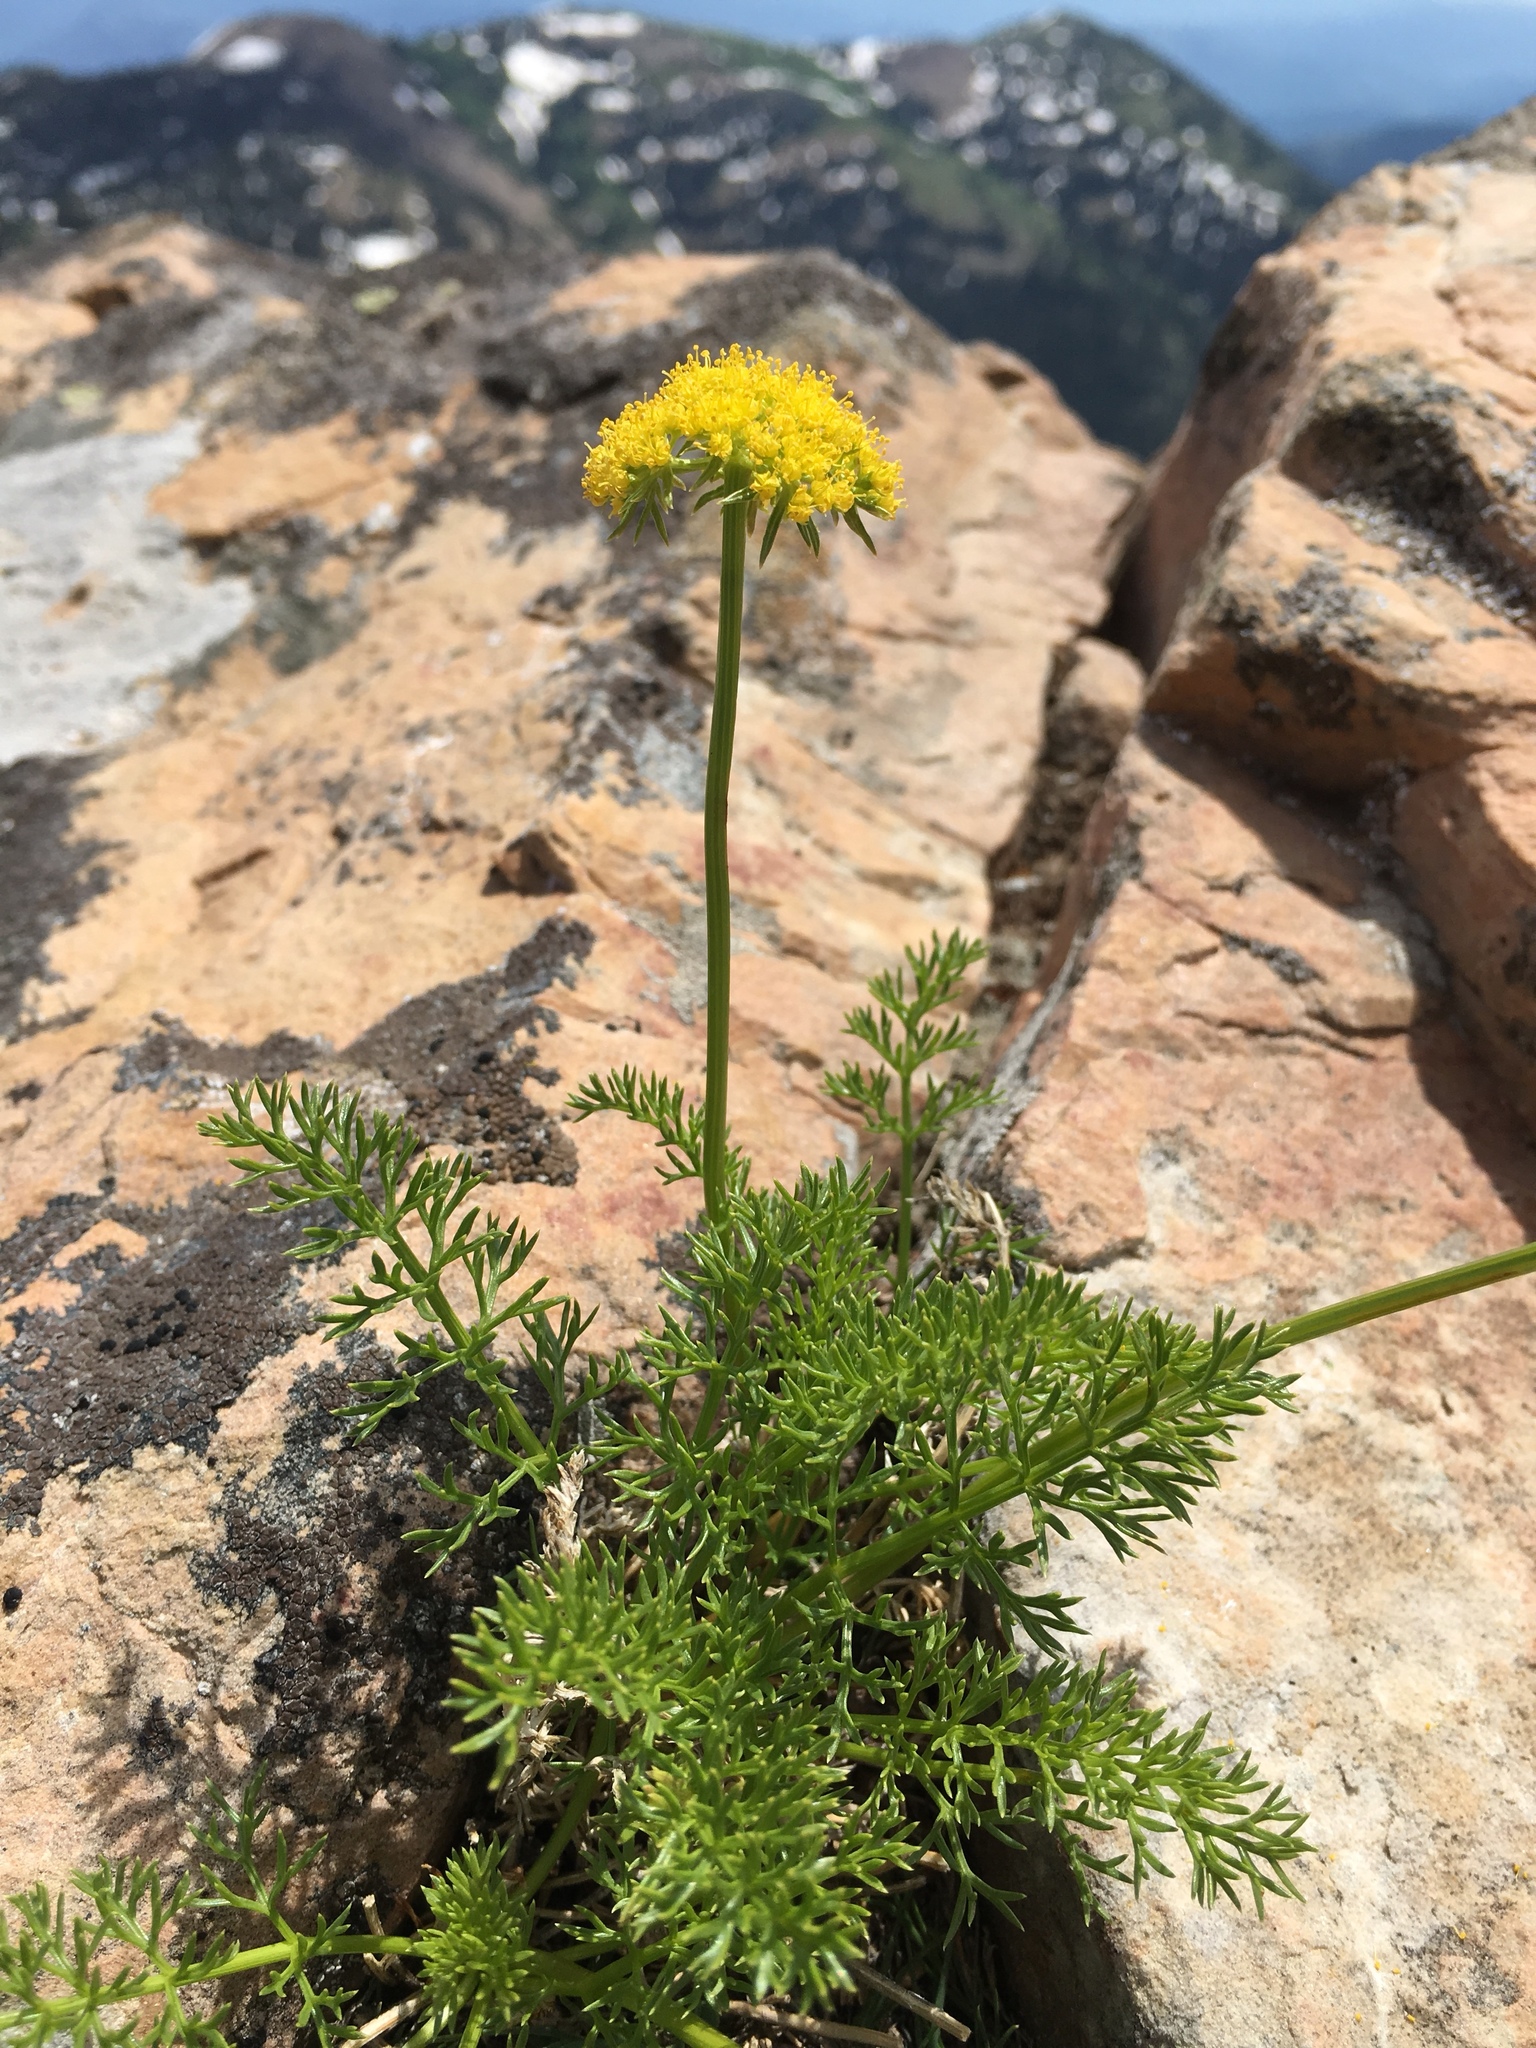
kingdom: Plantae
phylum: Tracheophyta
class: Magnoliopsida
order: Apiales
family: Apiaceae
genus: Pteryxia
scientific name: Pteryxia hendersonii
